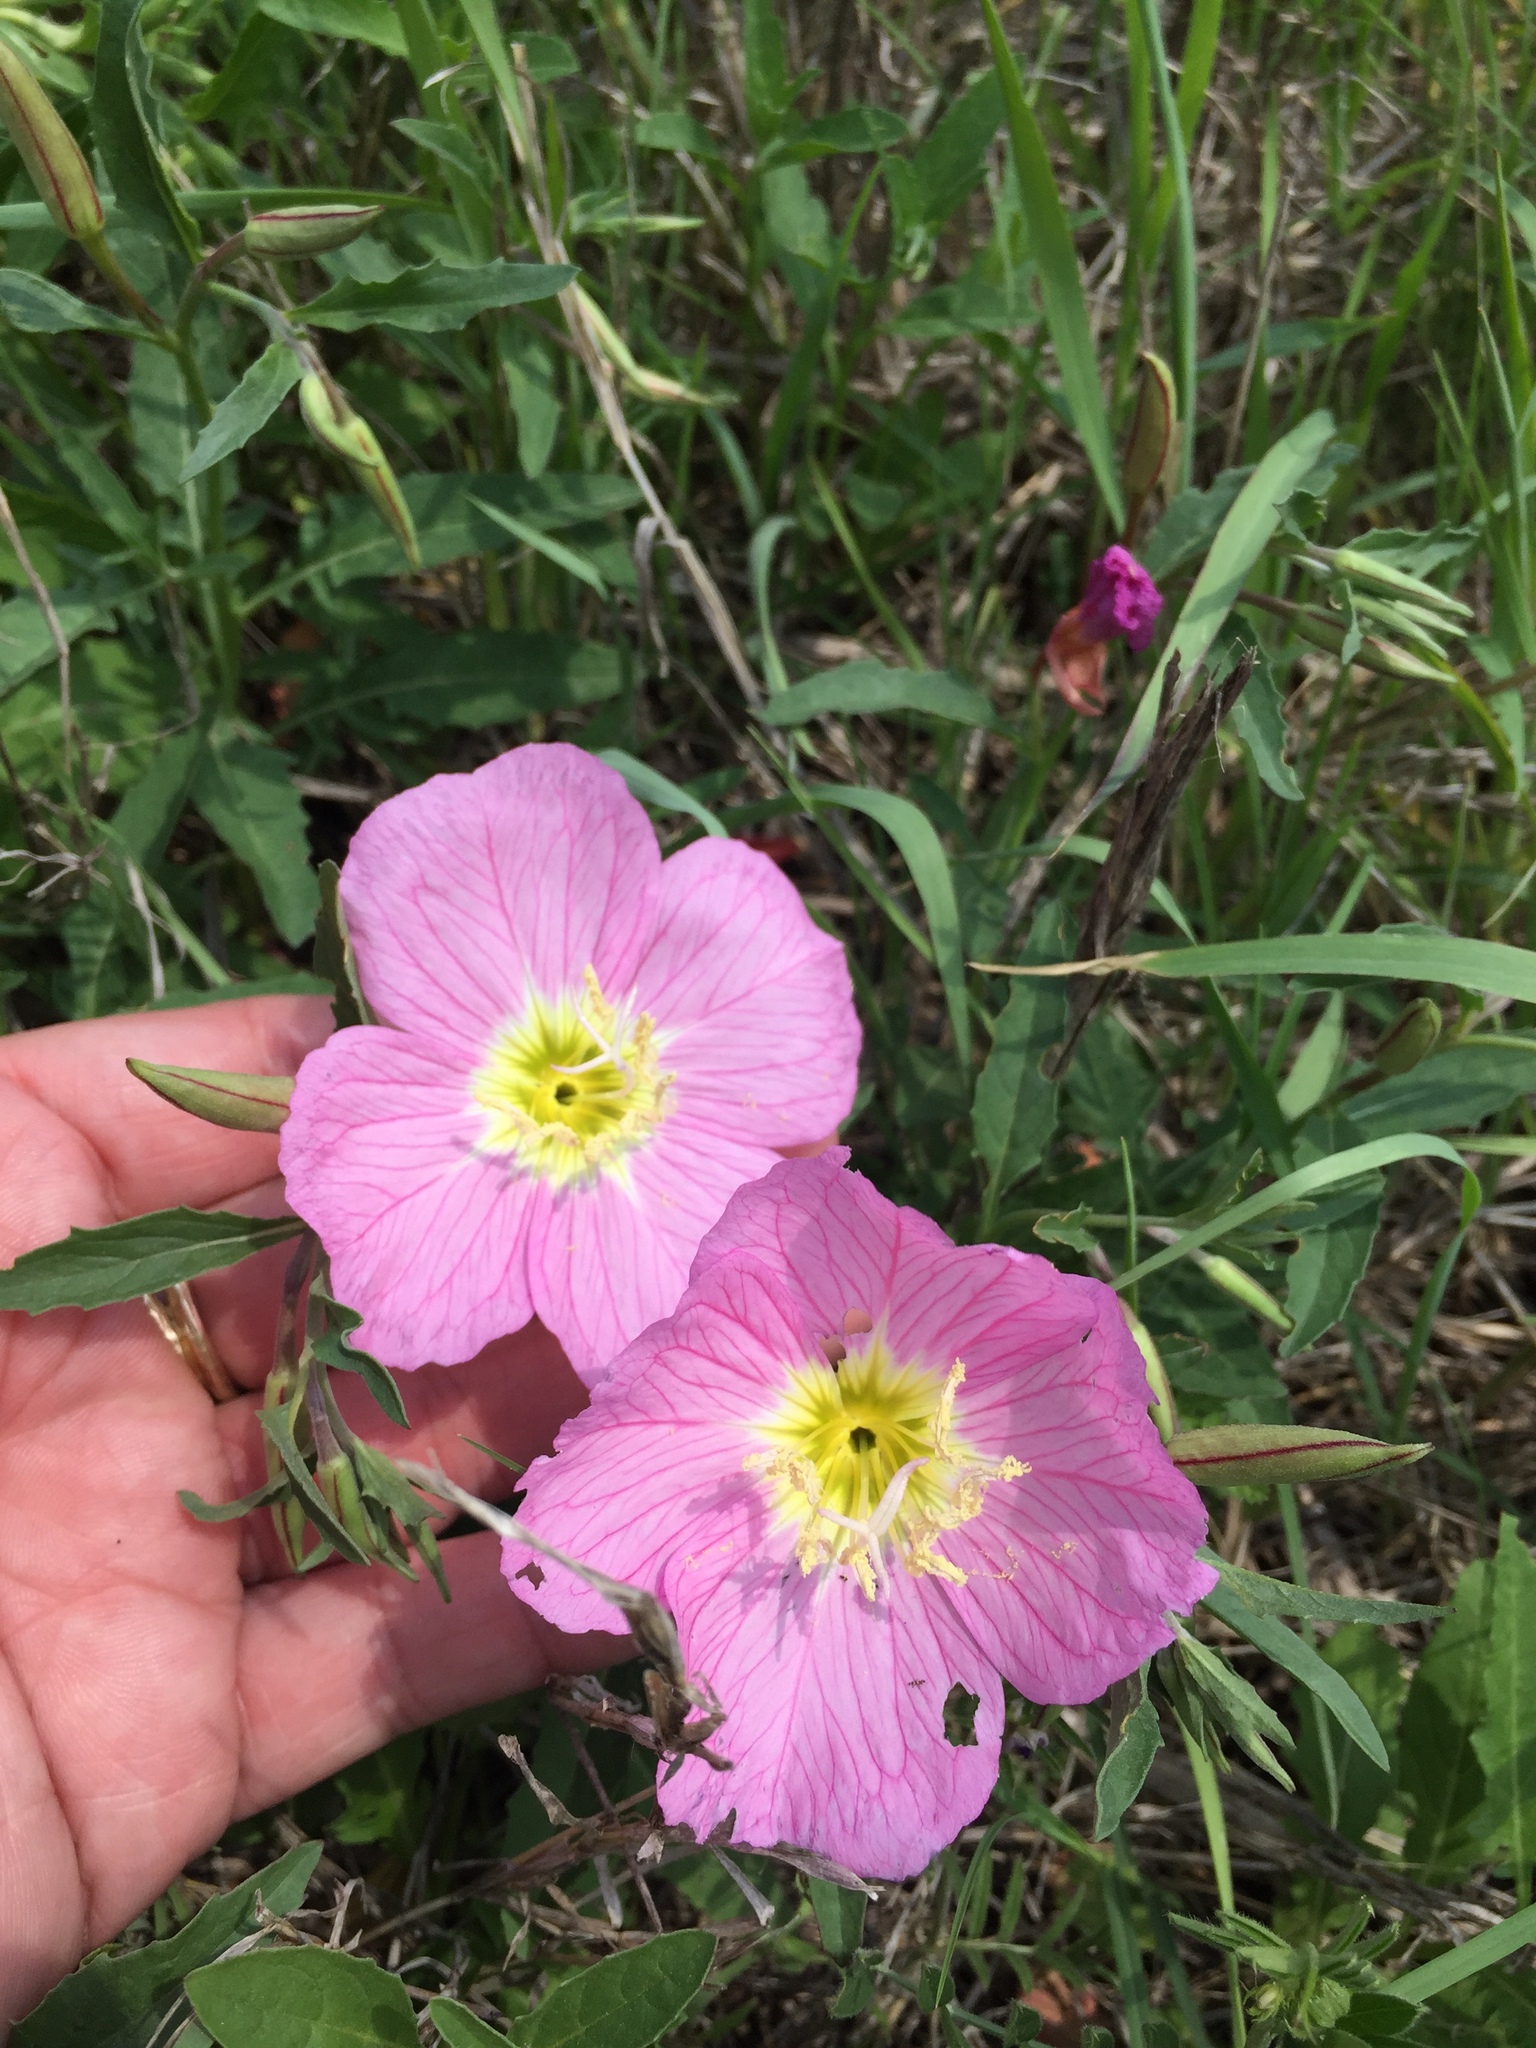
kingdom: Plantae
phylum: Tracheophyta
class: Magnoliopsida
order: Myrtales
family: Onagraceae
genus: Oenothera
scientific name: Oenothera speciosa
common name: White evening-primrose
